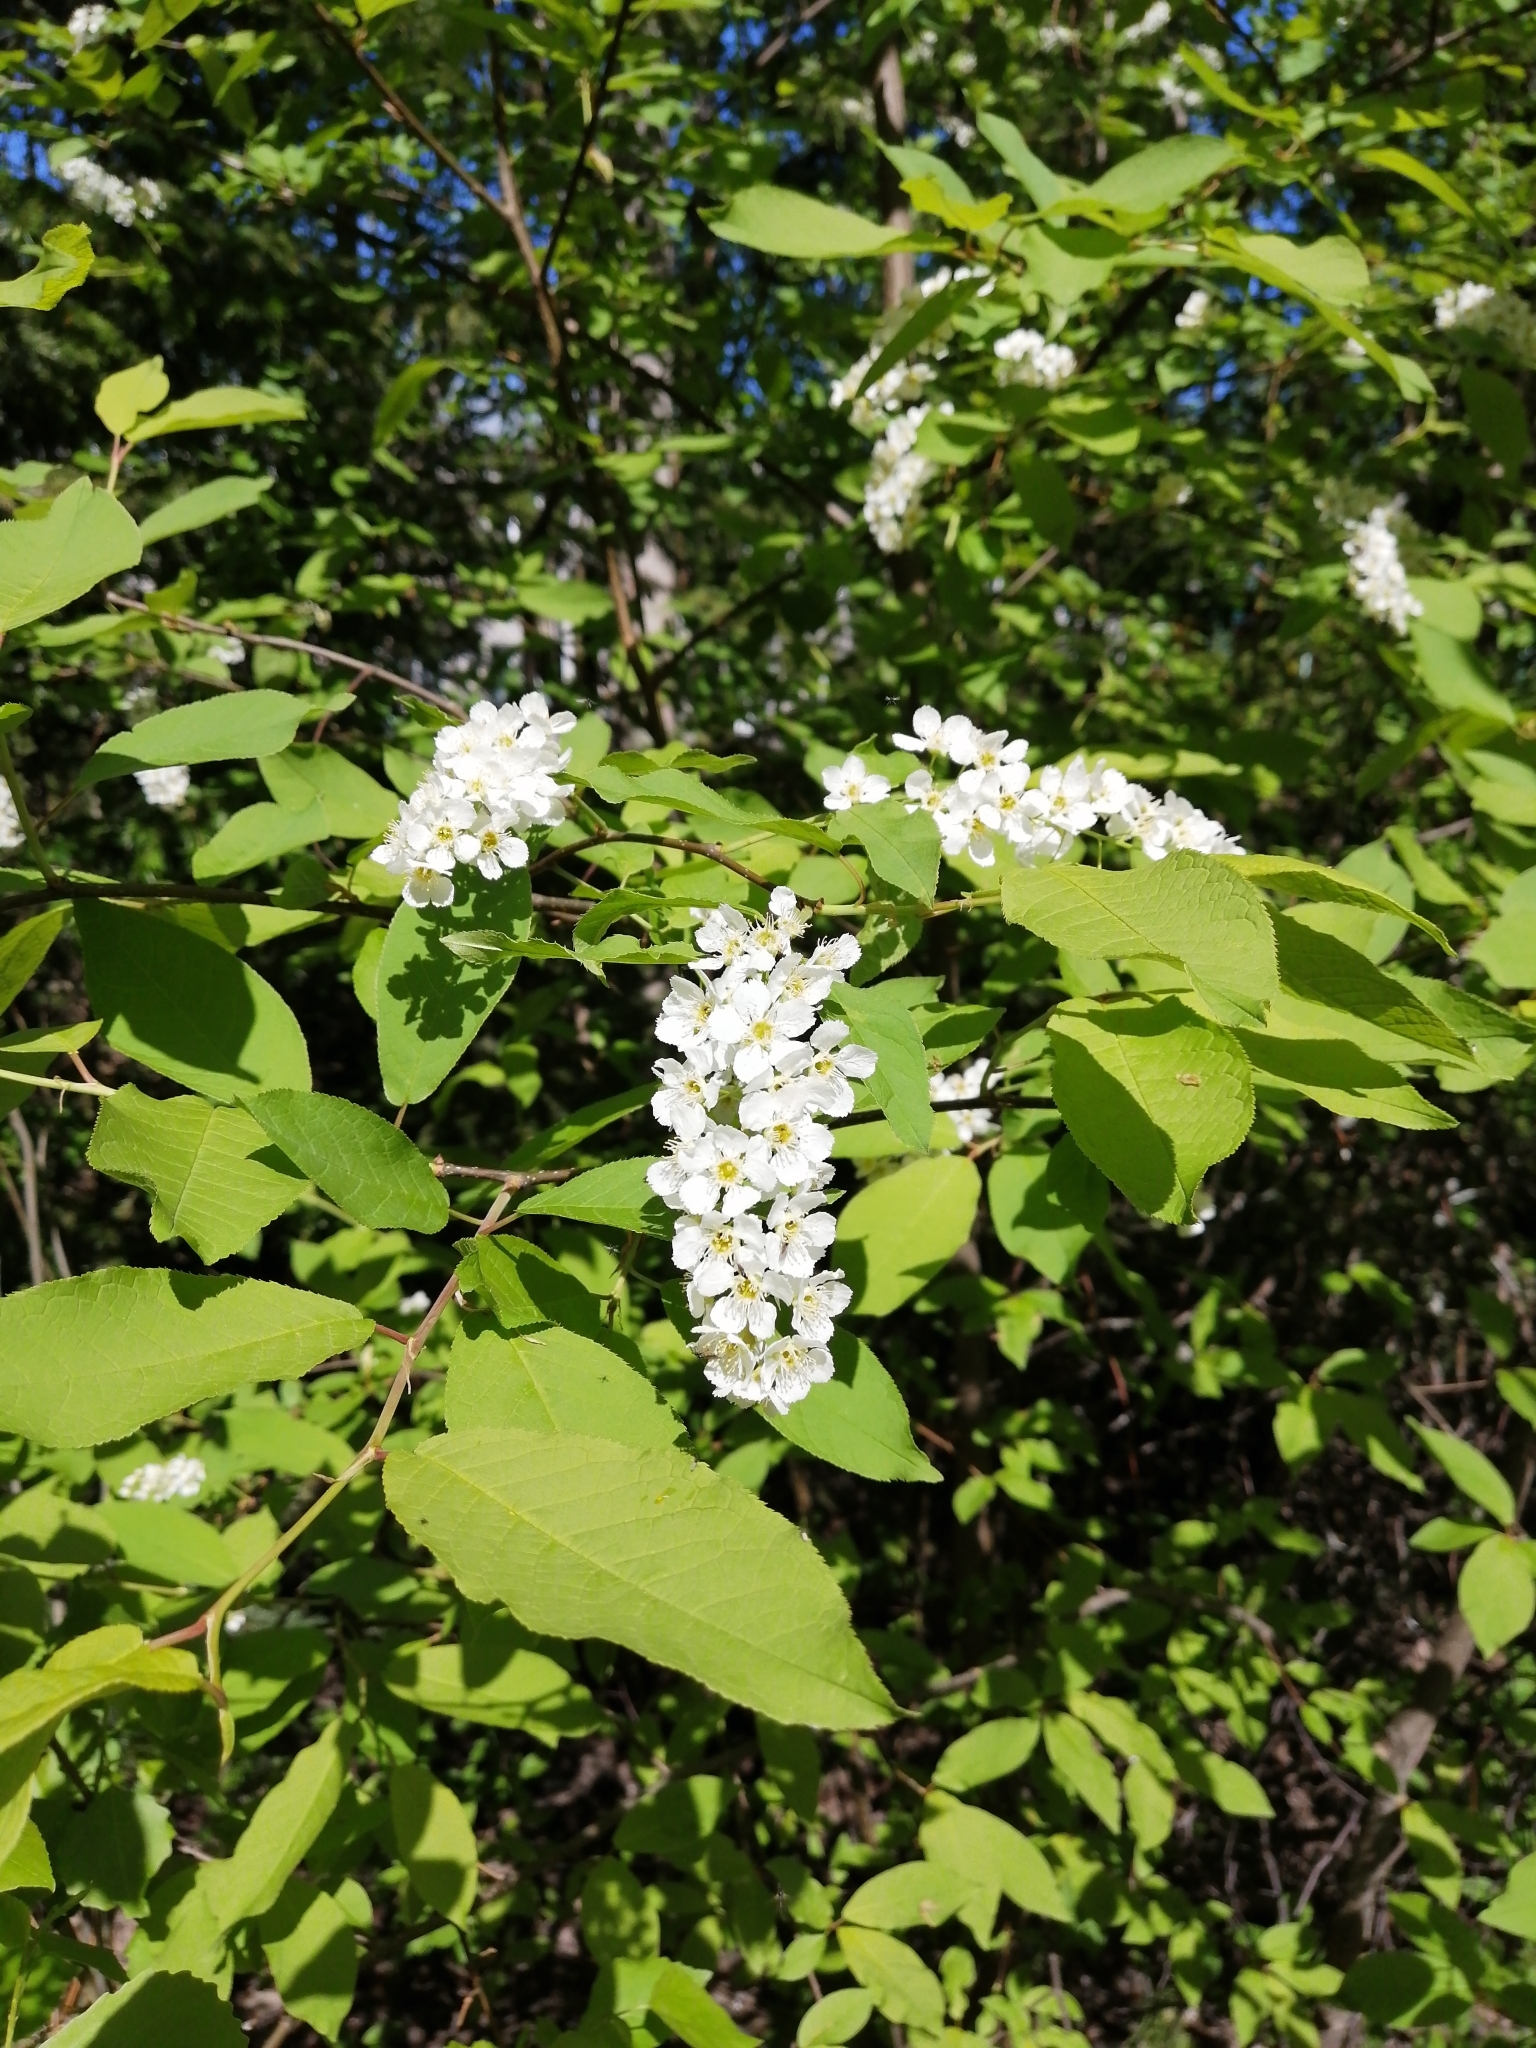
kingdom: Plantae
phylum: Tracheophyta
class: Magnoliopsida
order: Rosales
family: Rosaceae
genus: Prunus
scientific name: Prunus padus
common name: Bird cherry
